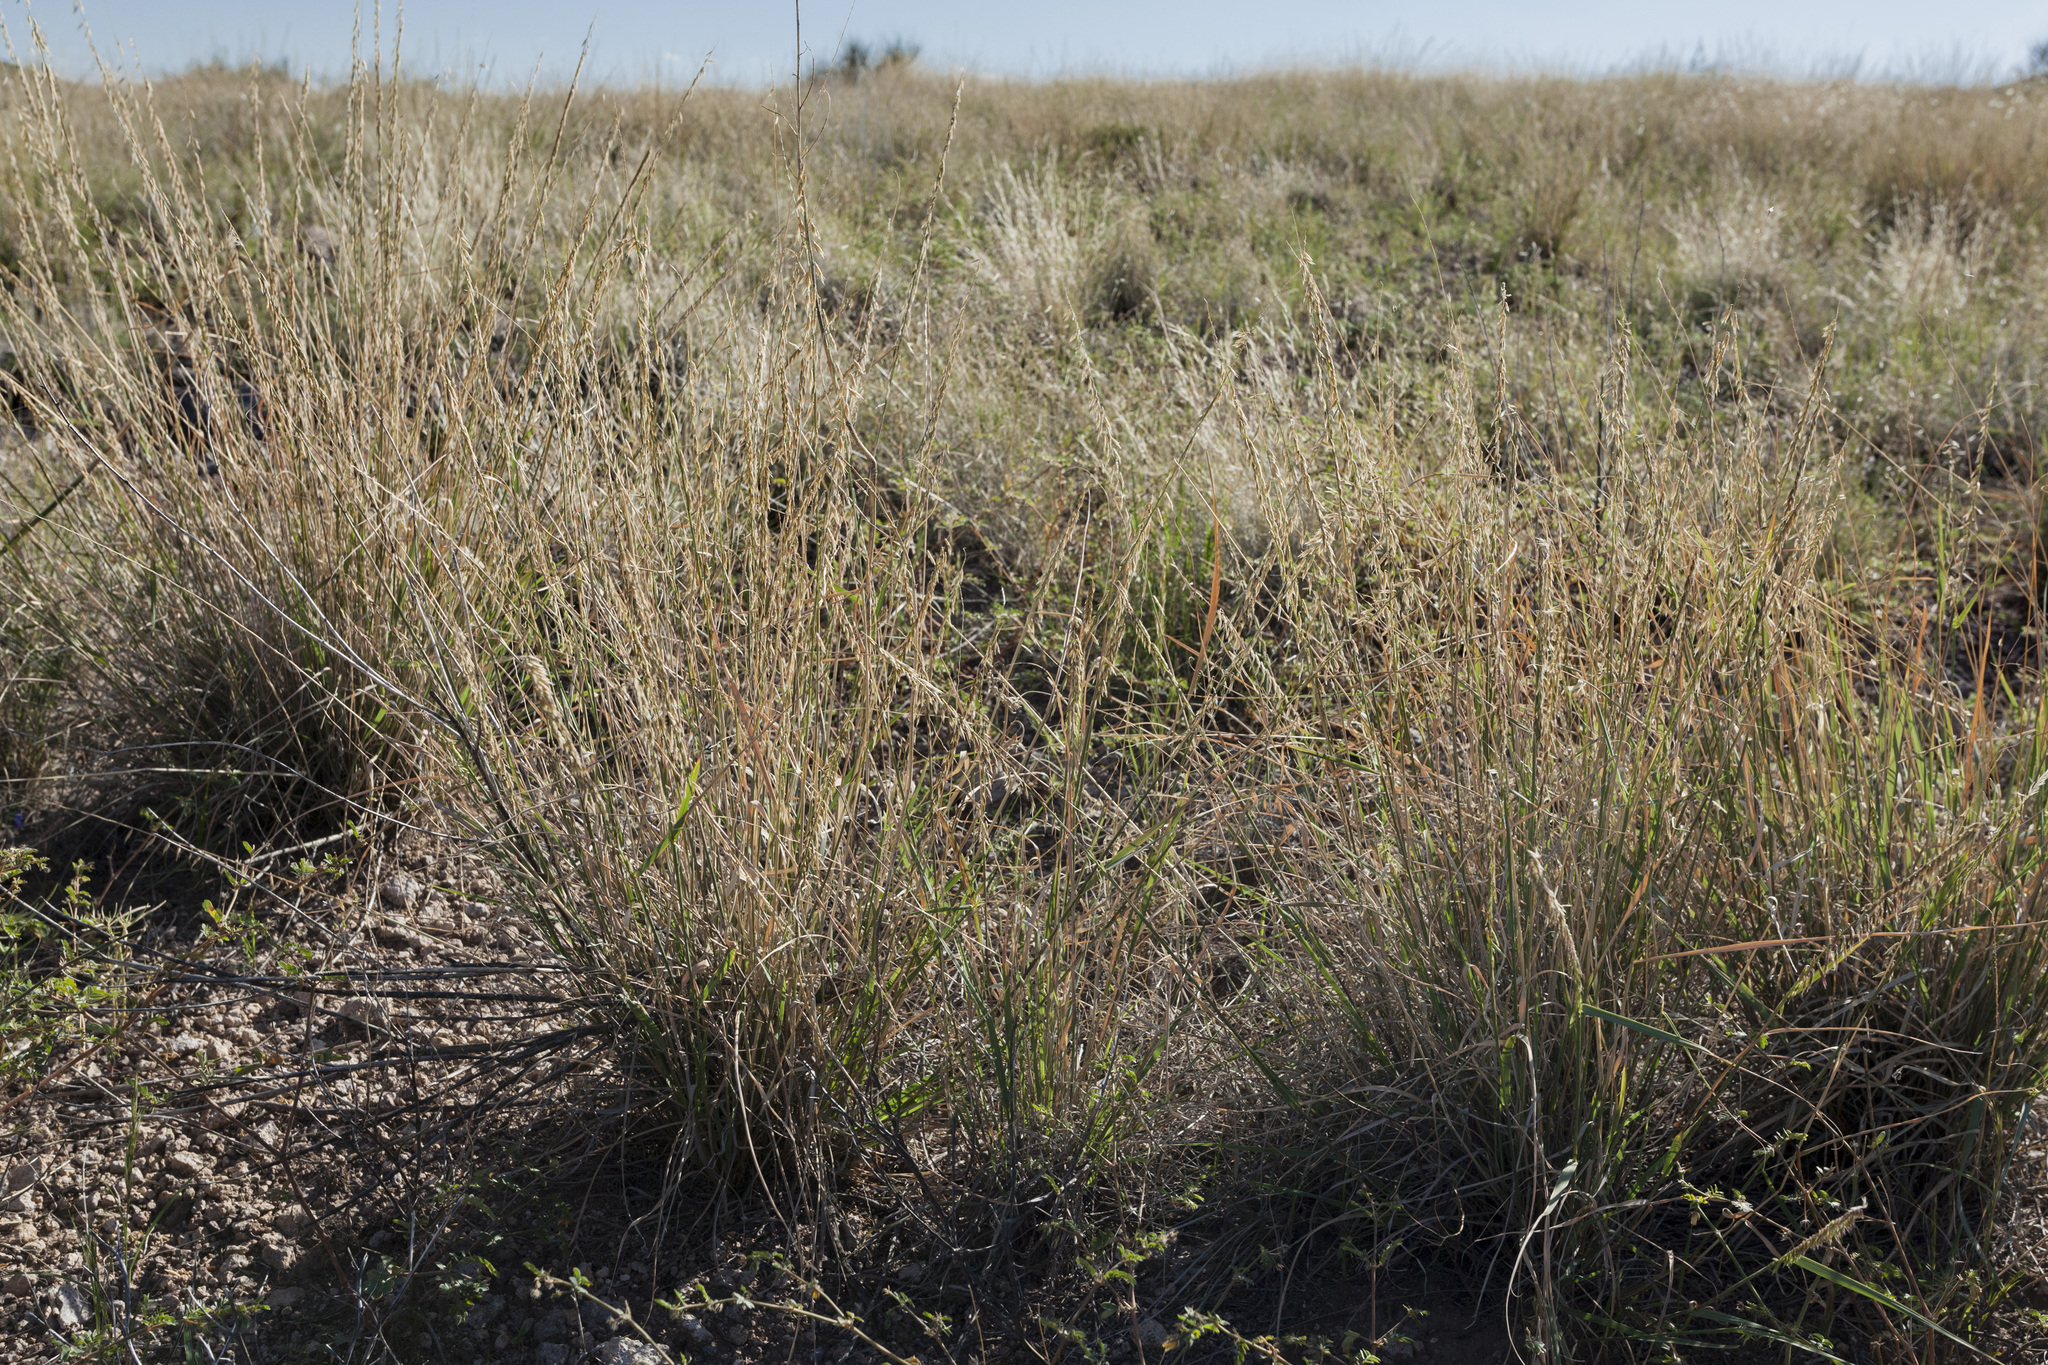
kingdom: Plantae
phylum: Tracheophyta
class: Liliopsida
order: Poales
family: Poaceae
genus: Bouteloua
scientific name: Bouteloua curtipendula
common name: Side-oats grama
